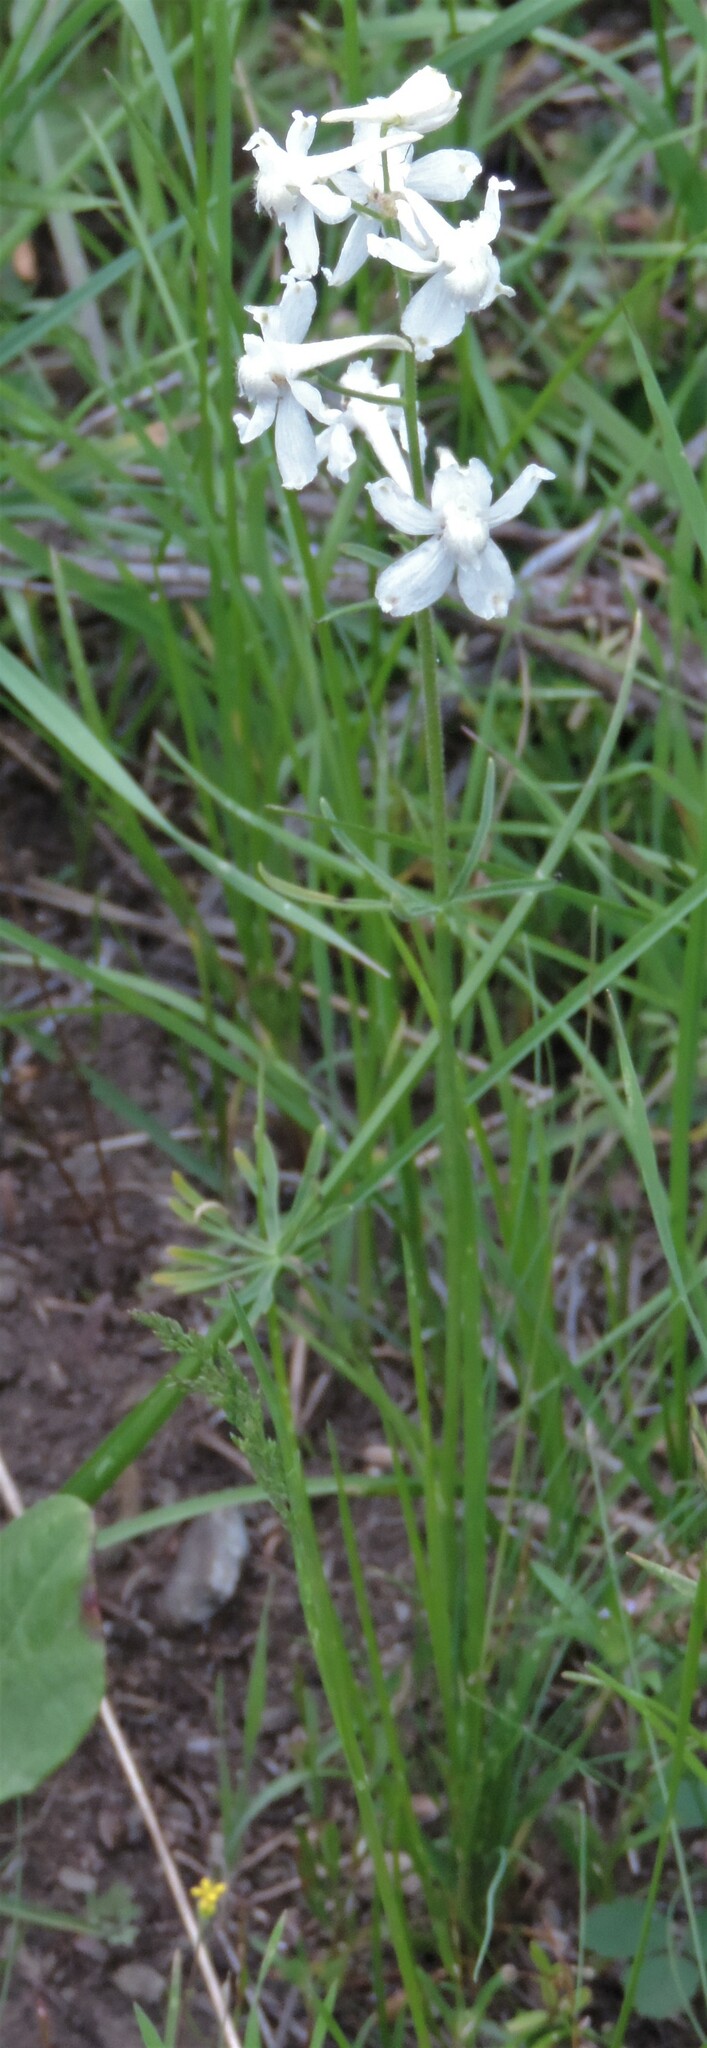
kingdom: Plantae
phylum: Tracheophyta
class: Magnoliopsida
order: Ranunculales
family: Ranunculaceae
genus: Delphinium
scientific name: Delphinium nuttallianum
